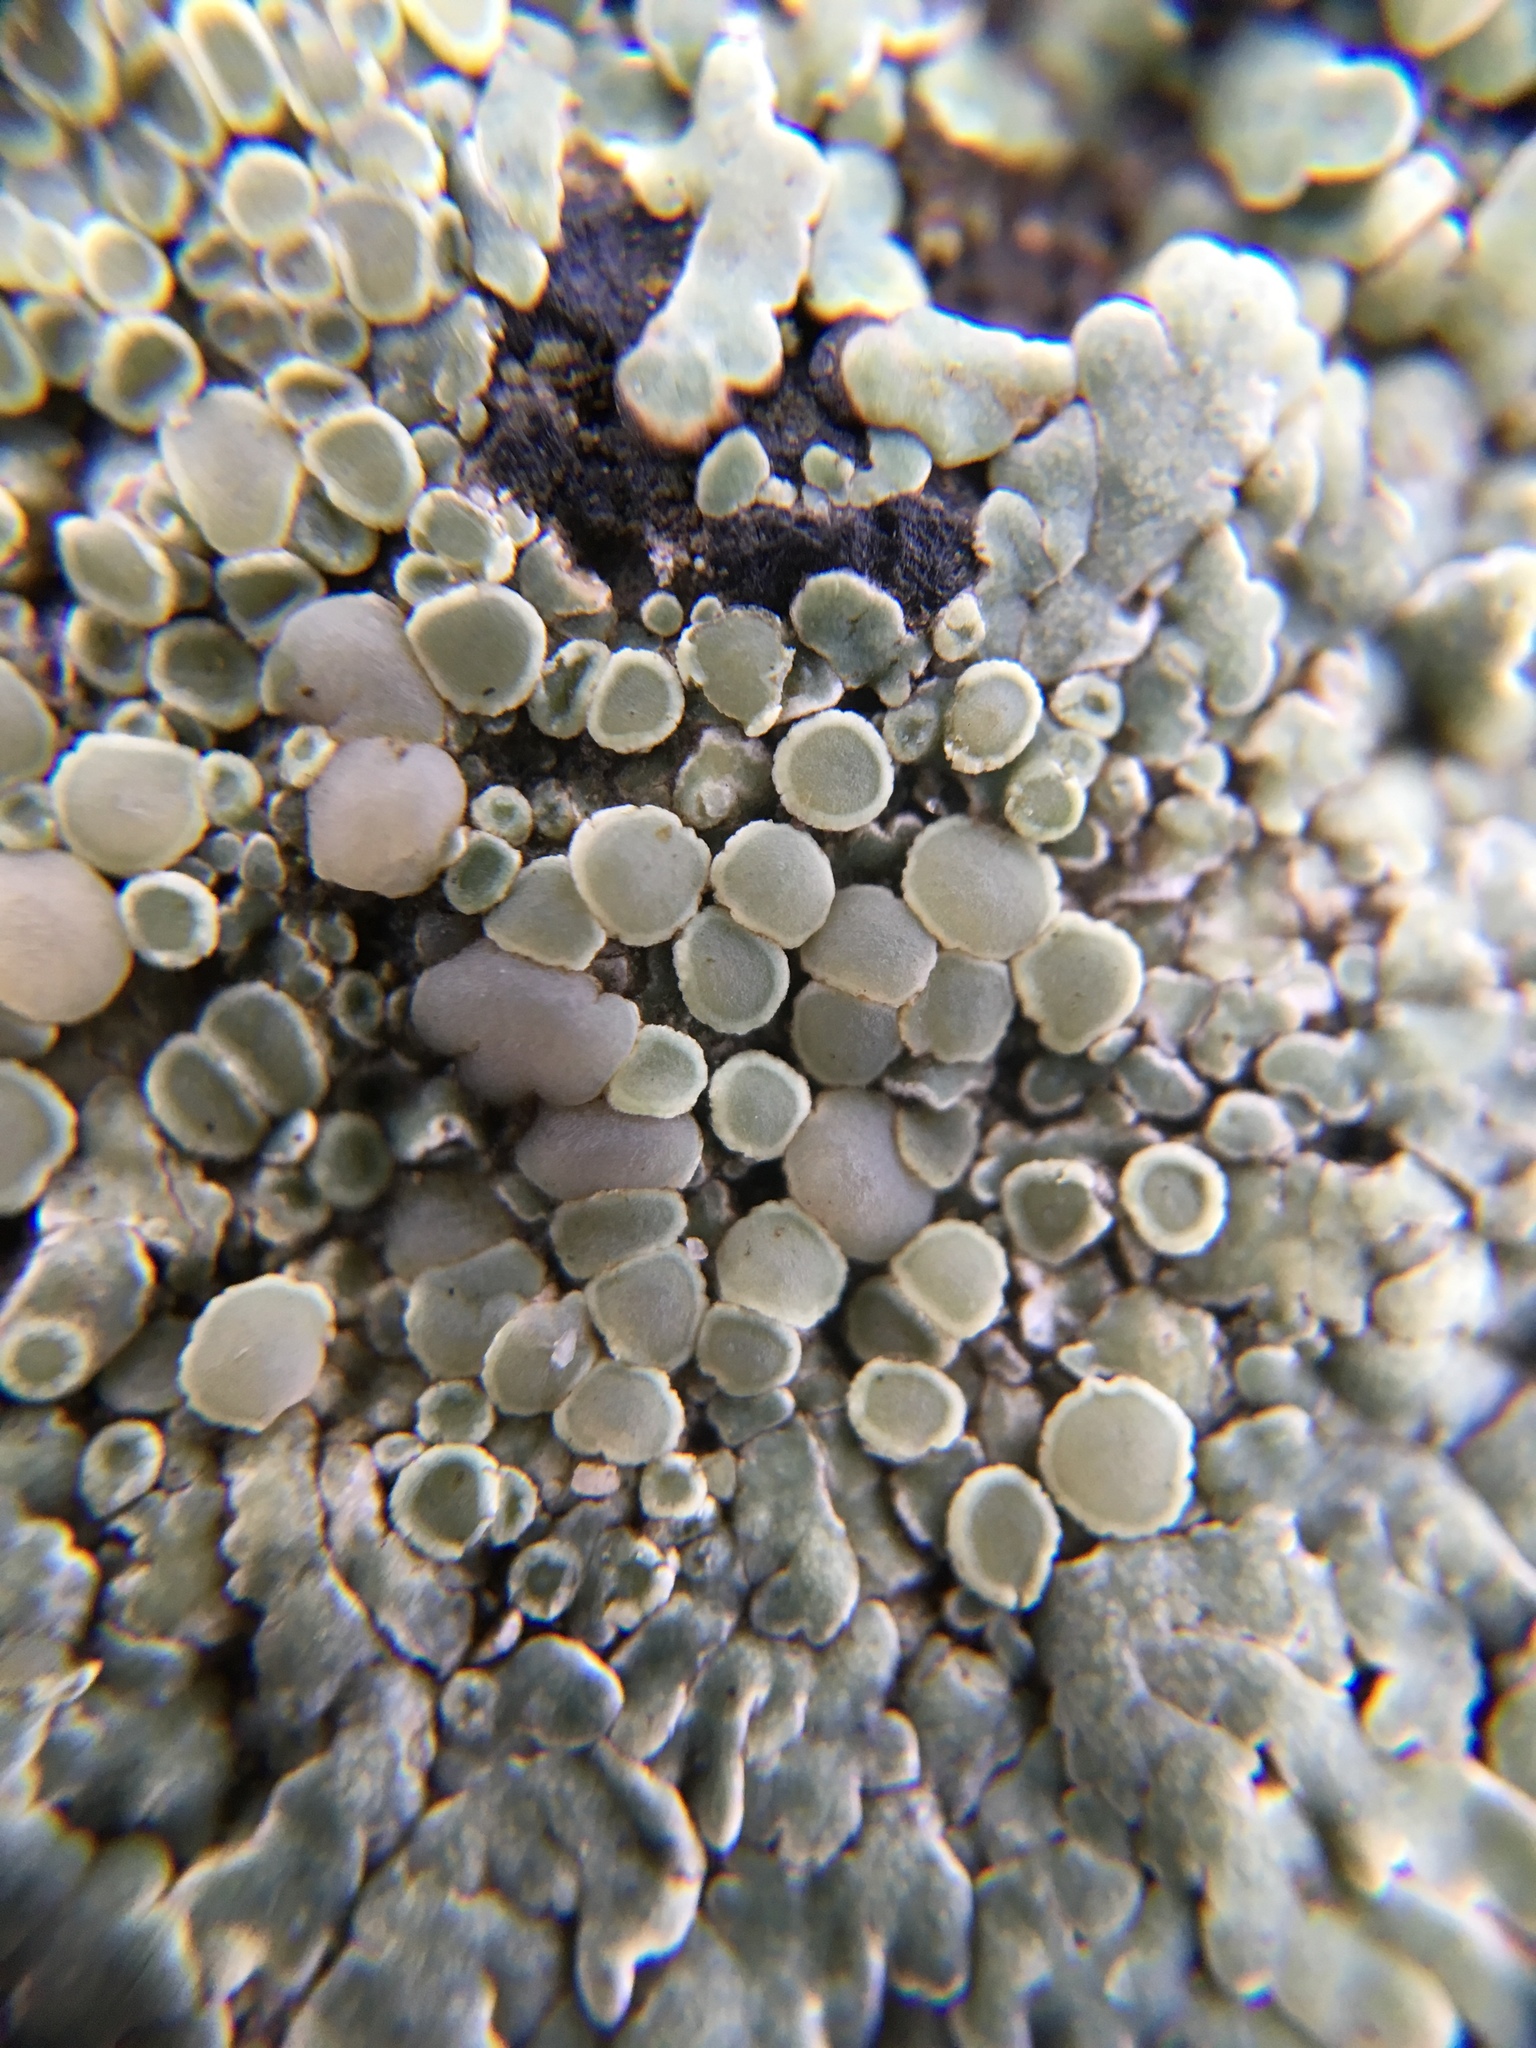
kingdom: Fungi
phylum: Ascomycota
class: Lecanoromycetes
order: Lecanorales
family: Lecanoraceae
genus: Protoparmeliopsis
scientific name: Protoparmeliopsis muralis
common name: Stonewall rim lichen
